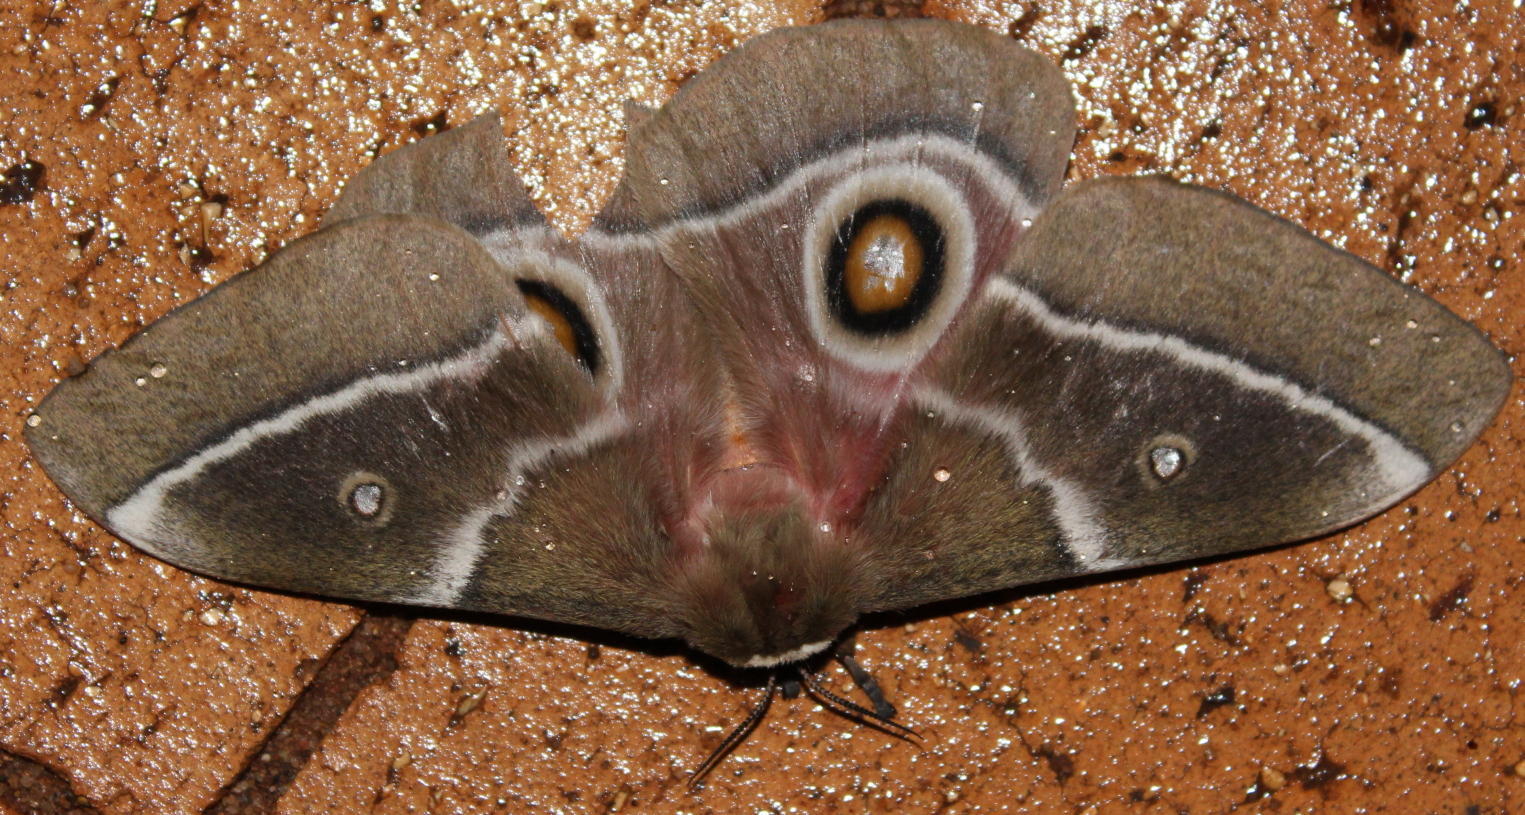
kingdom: Animalia
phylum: Arthropoda
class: Insecta
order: Lepidoptera
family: Saturniidae
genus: Gonimbrasia
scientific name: Gonimbrasia belina
